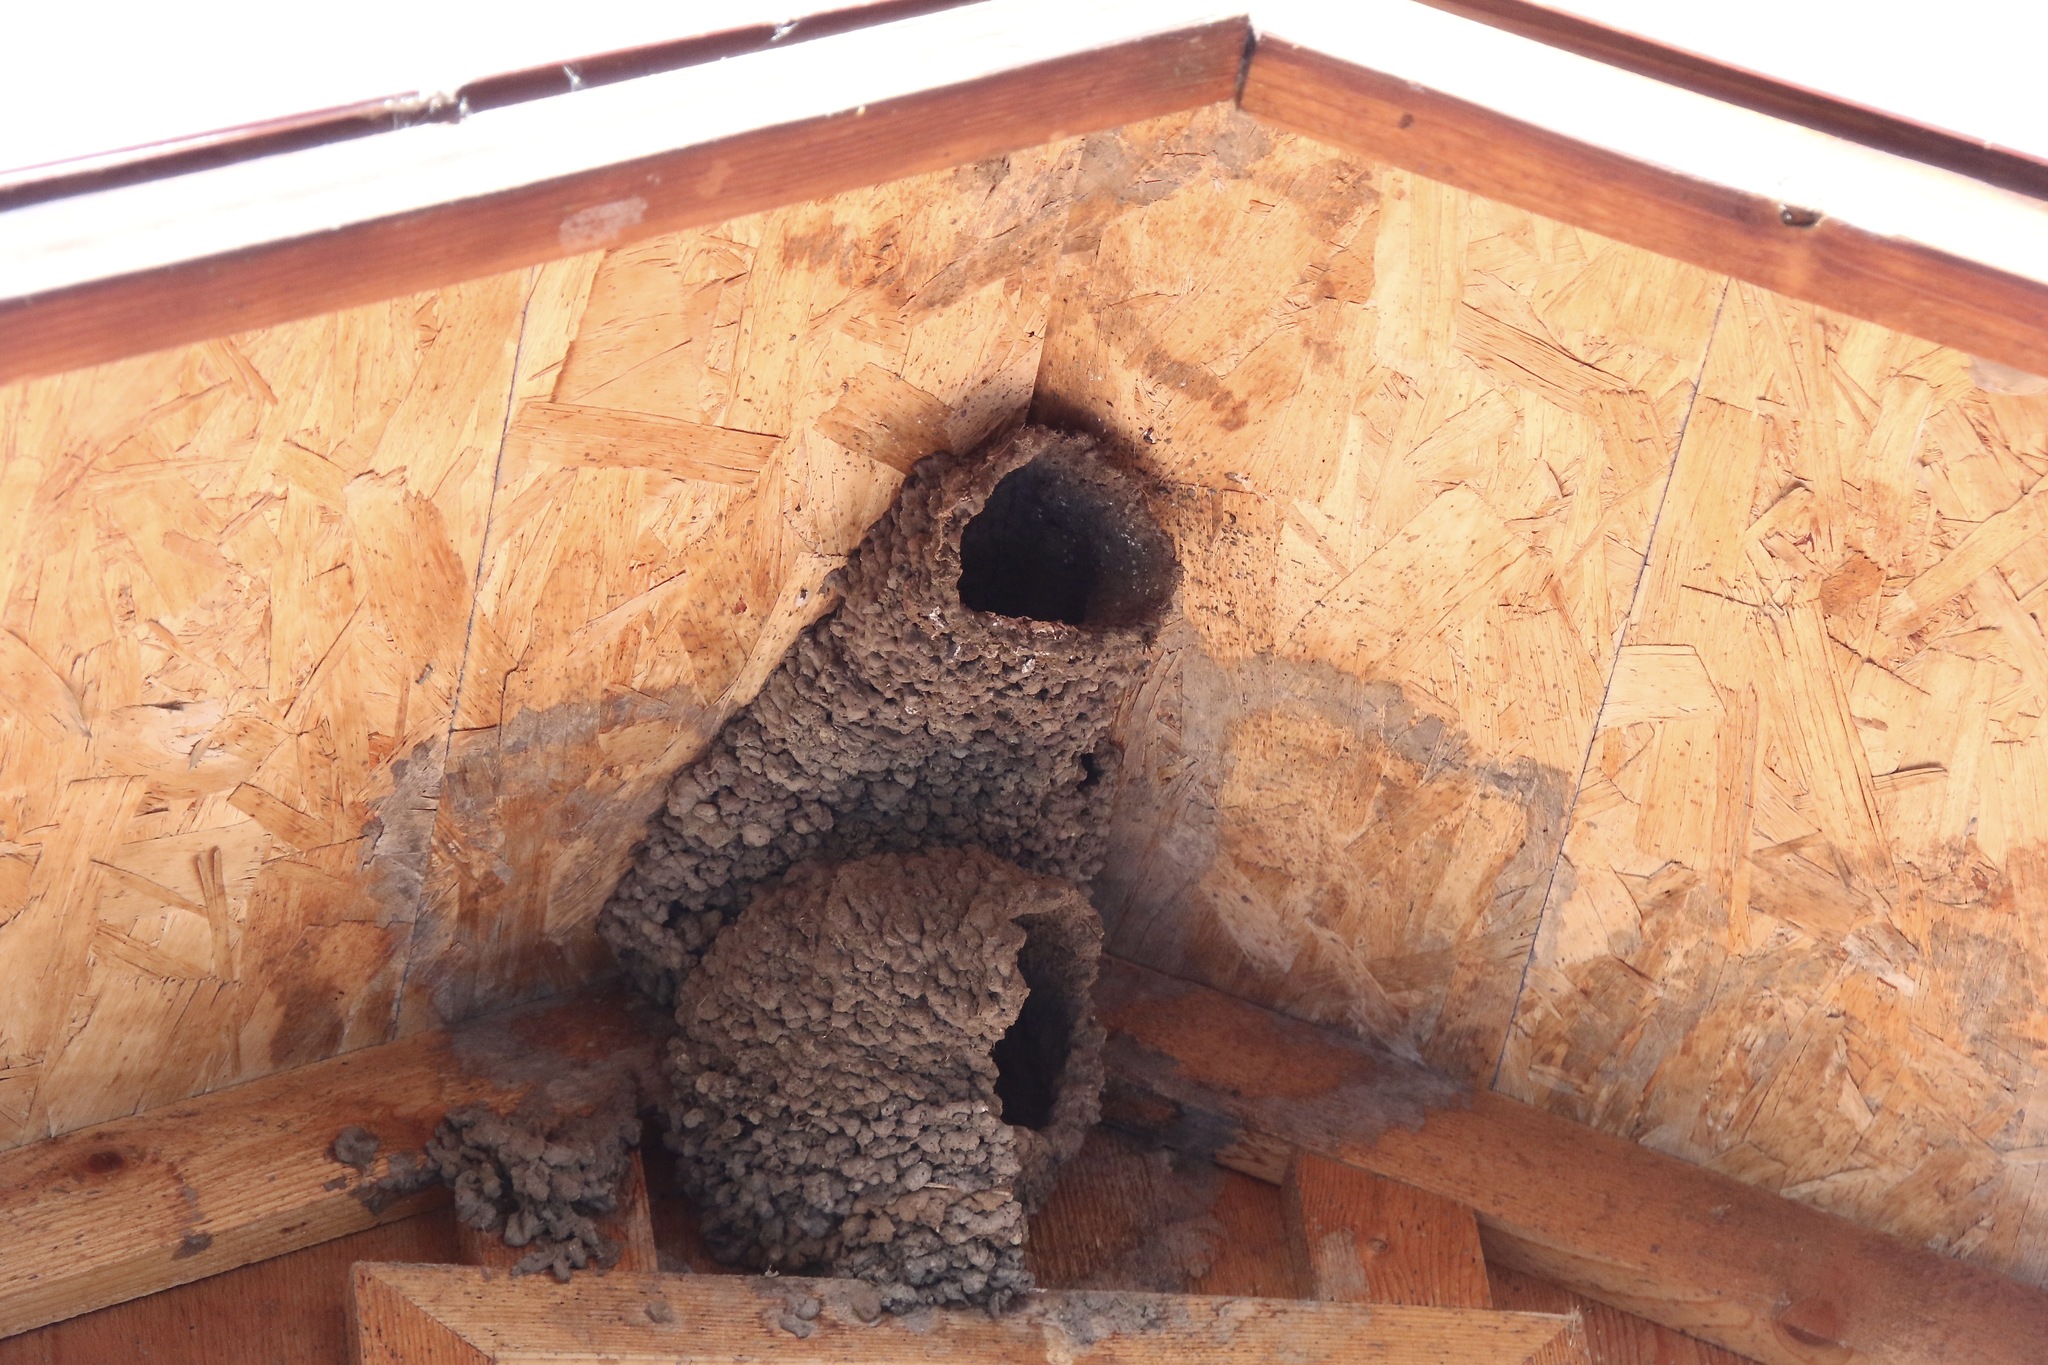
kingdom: Animalia
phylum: Chordata
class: Aves
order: Passeriformes
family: Hirundinidae
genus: Petrochelidon
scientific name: Petrochelidon pyrrhonota
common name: American cliff swallow
